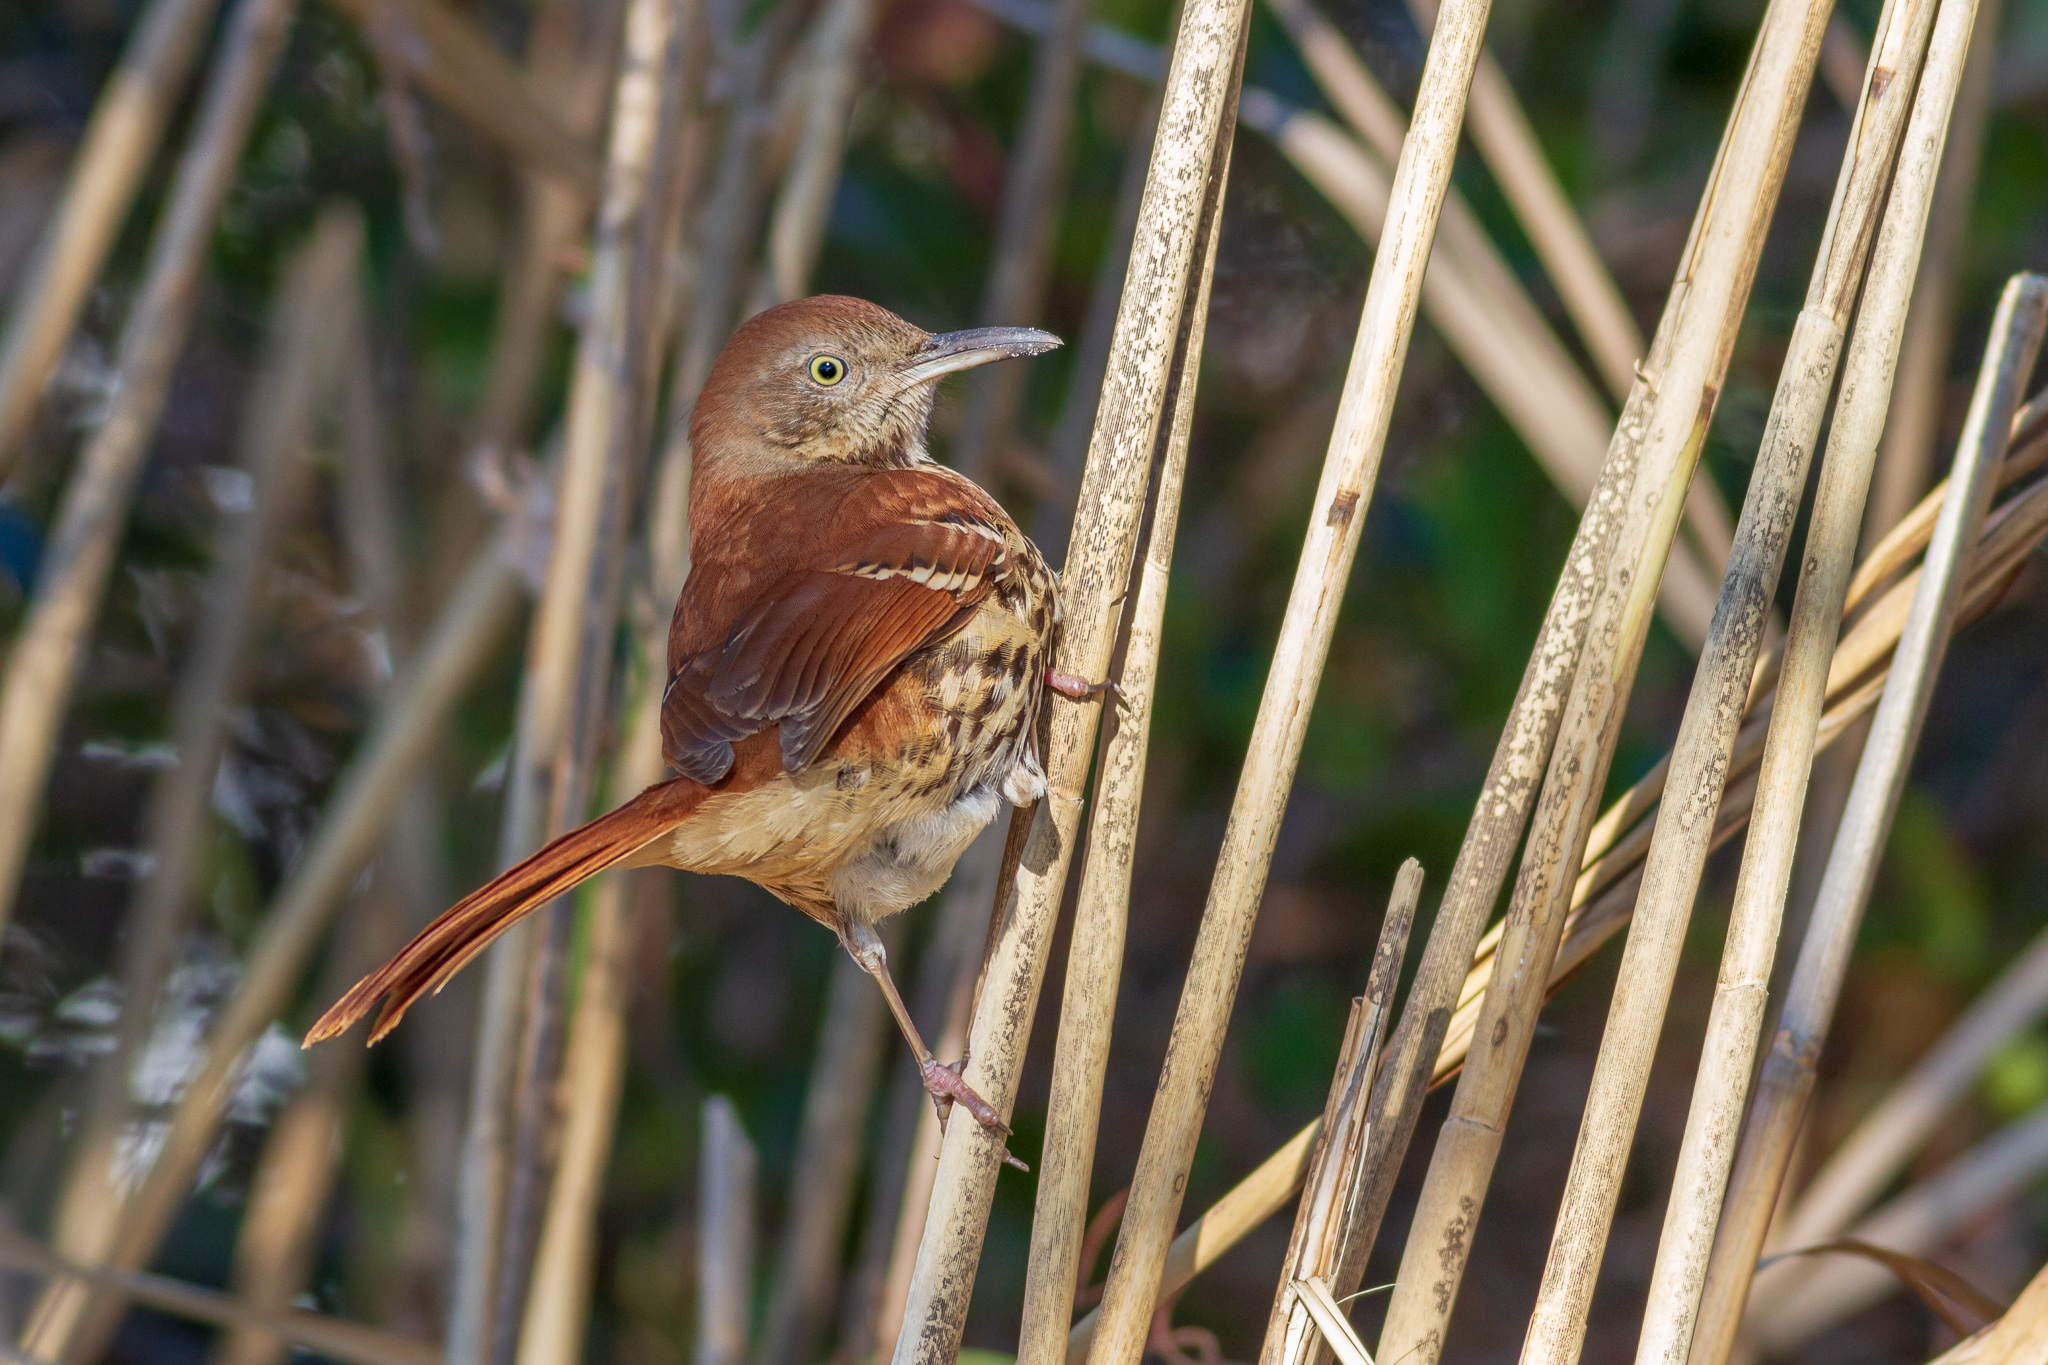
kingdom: Animalia
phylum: Chordata
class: Aves
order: Passeriformes
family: Mimidae
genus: Toxostoma
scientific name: Toxostoma rufum
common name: Brown thrasher
